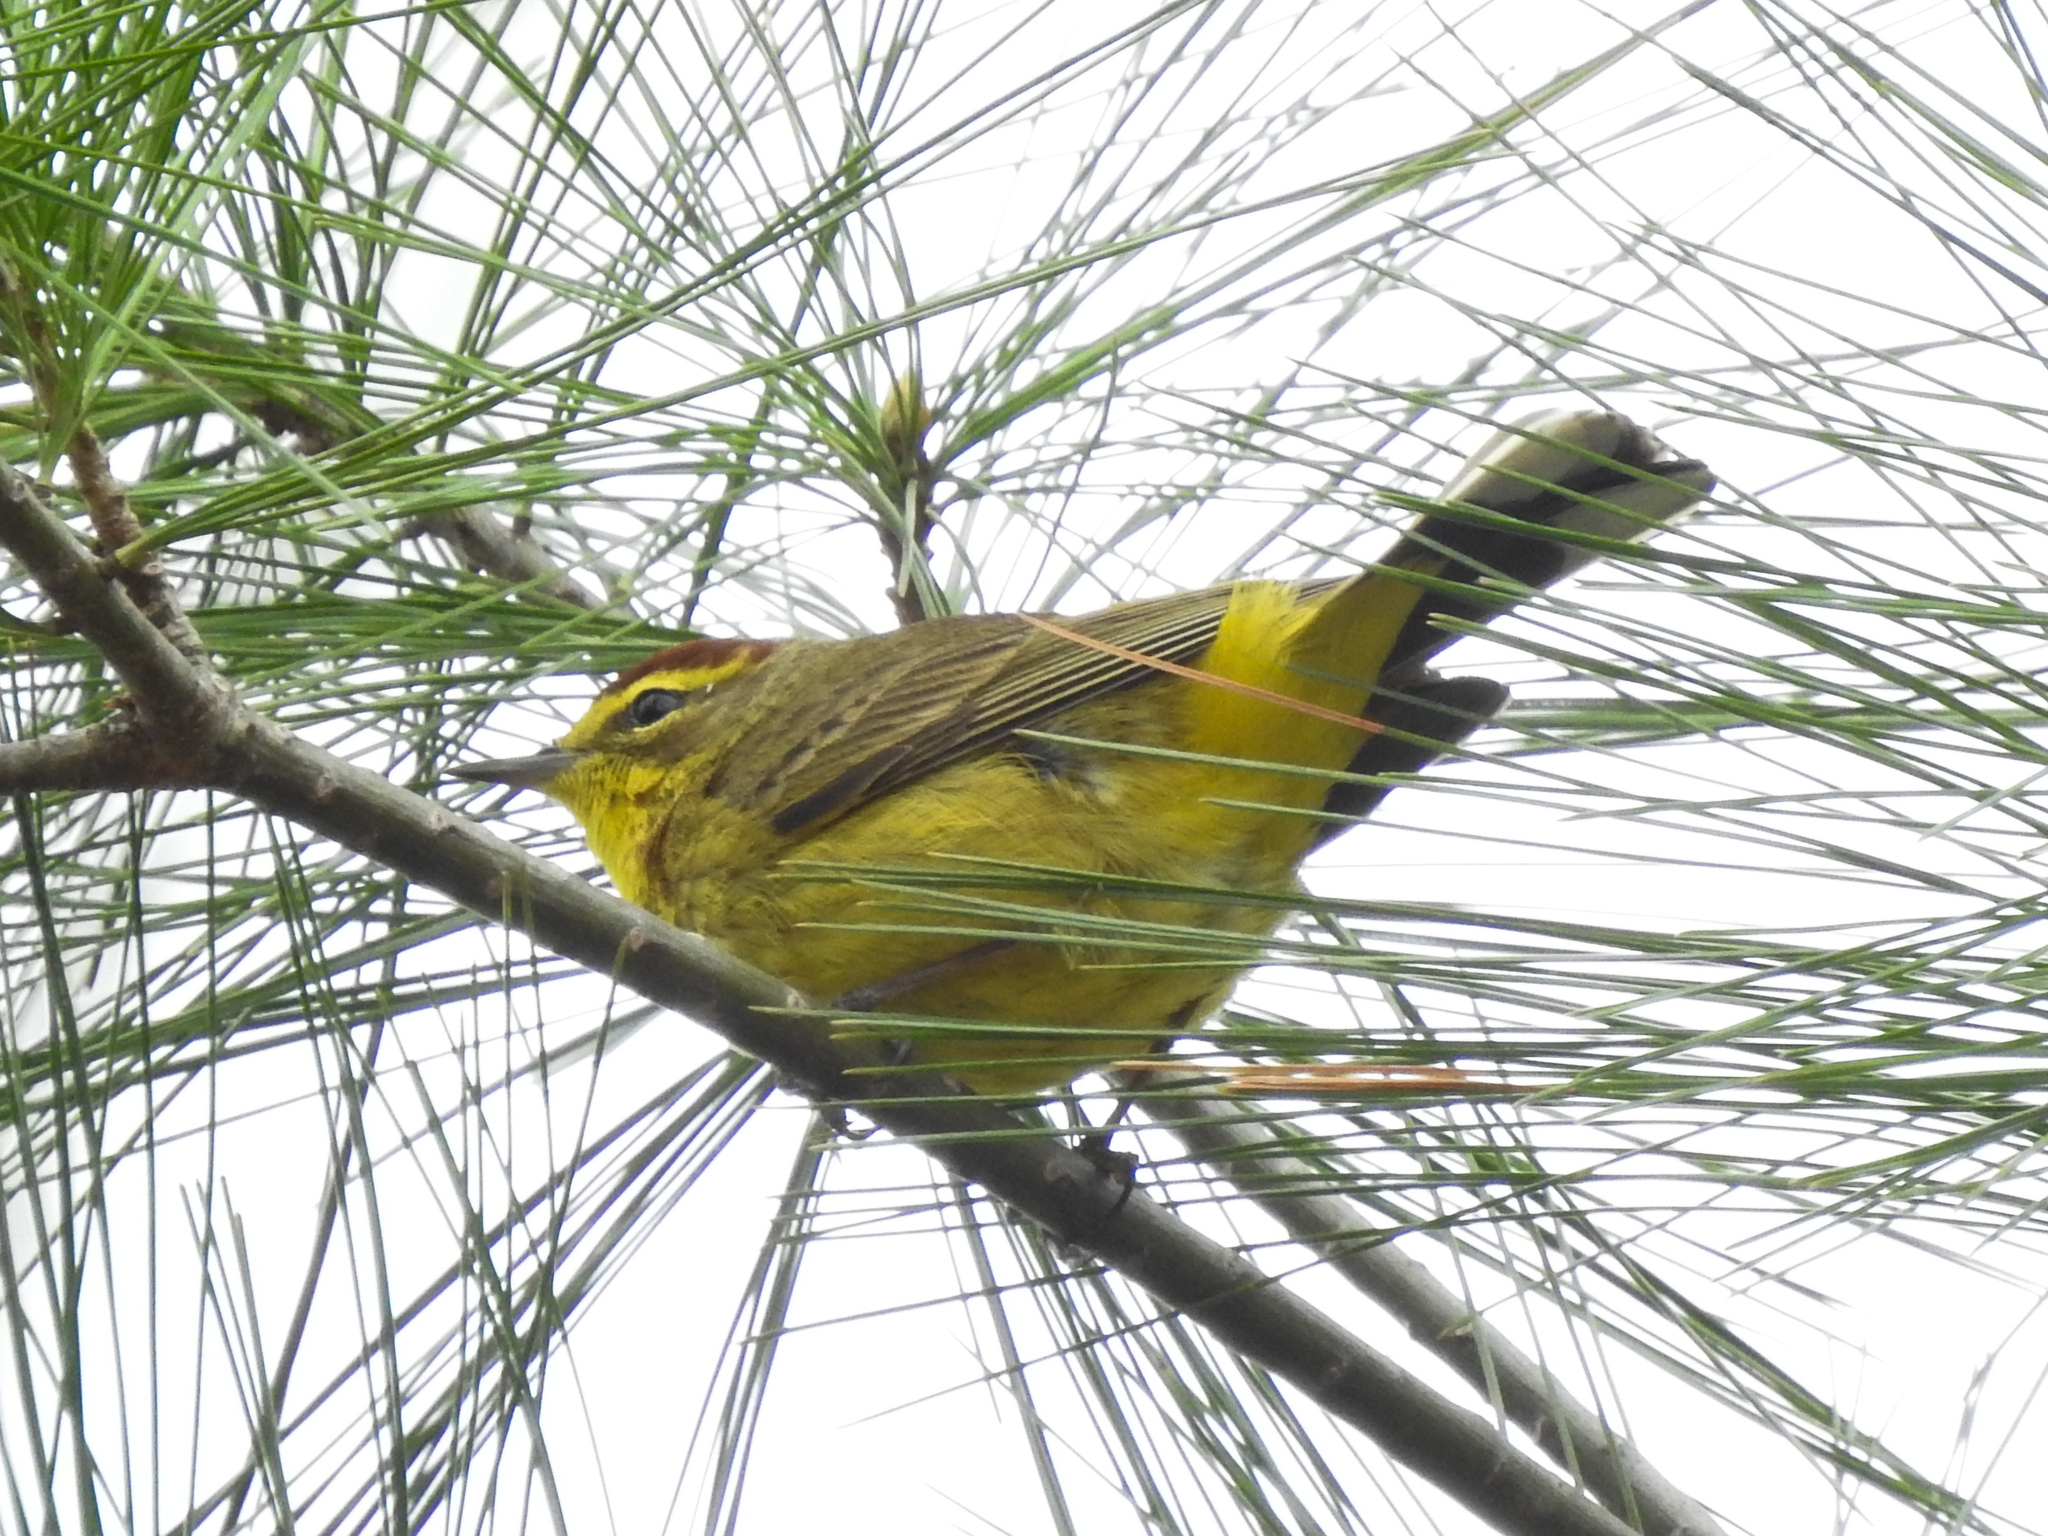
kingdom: Animalia
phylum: Chordata
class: Aves
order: Passeriformes
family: Parulidae
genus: Setophaga
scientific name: Setophaga palmarum
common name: Palm warbler
